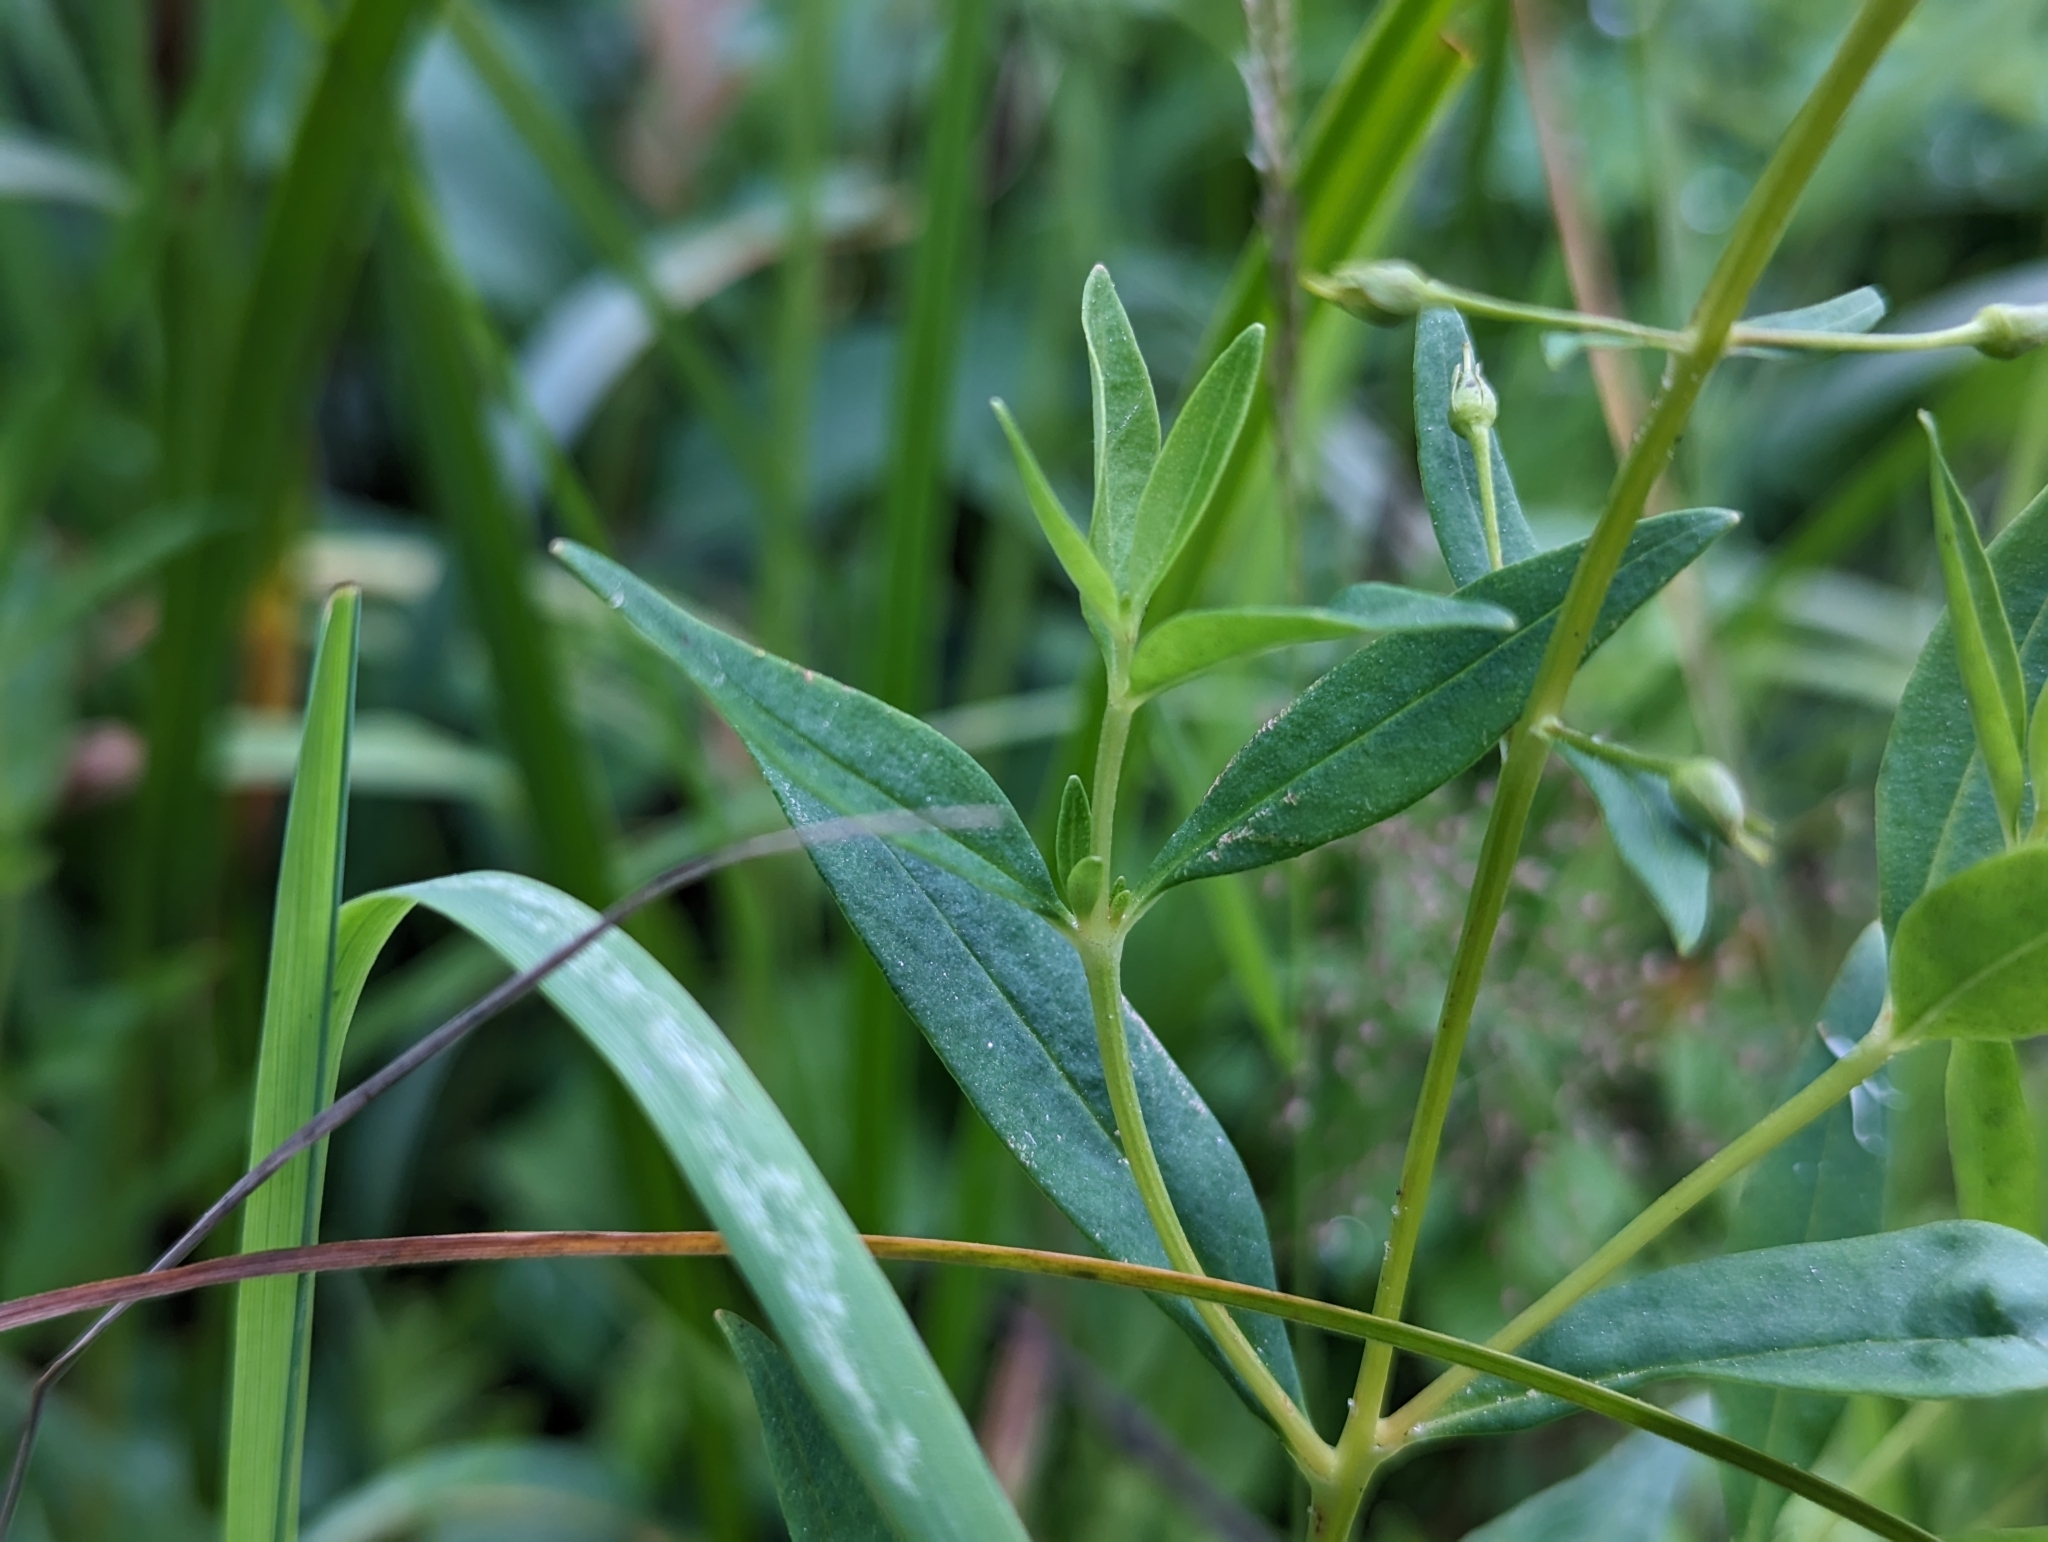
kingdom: Plantae
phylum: Tracheophyta
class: Magnoliopsida
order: Ericales
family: Primulaceae
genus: Lysimachia
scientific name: Lysimachia terrestris
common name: Lake loosestrife
